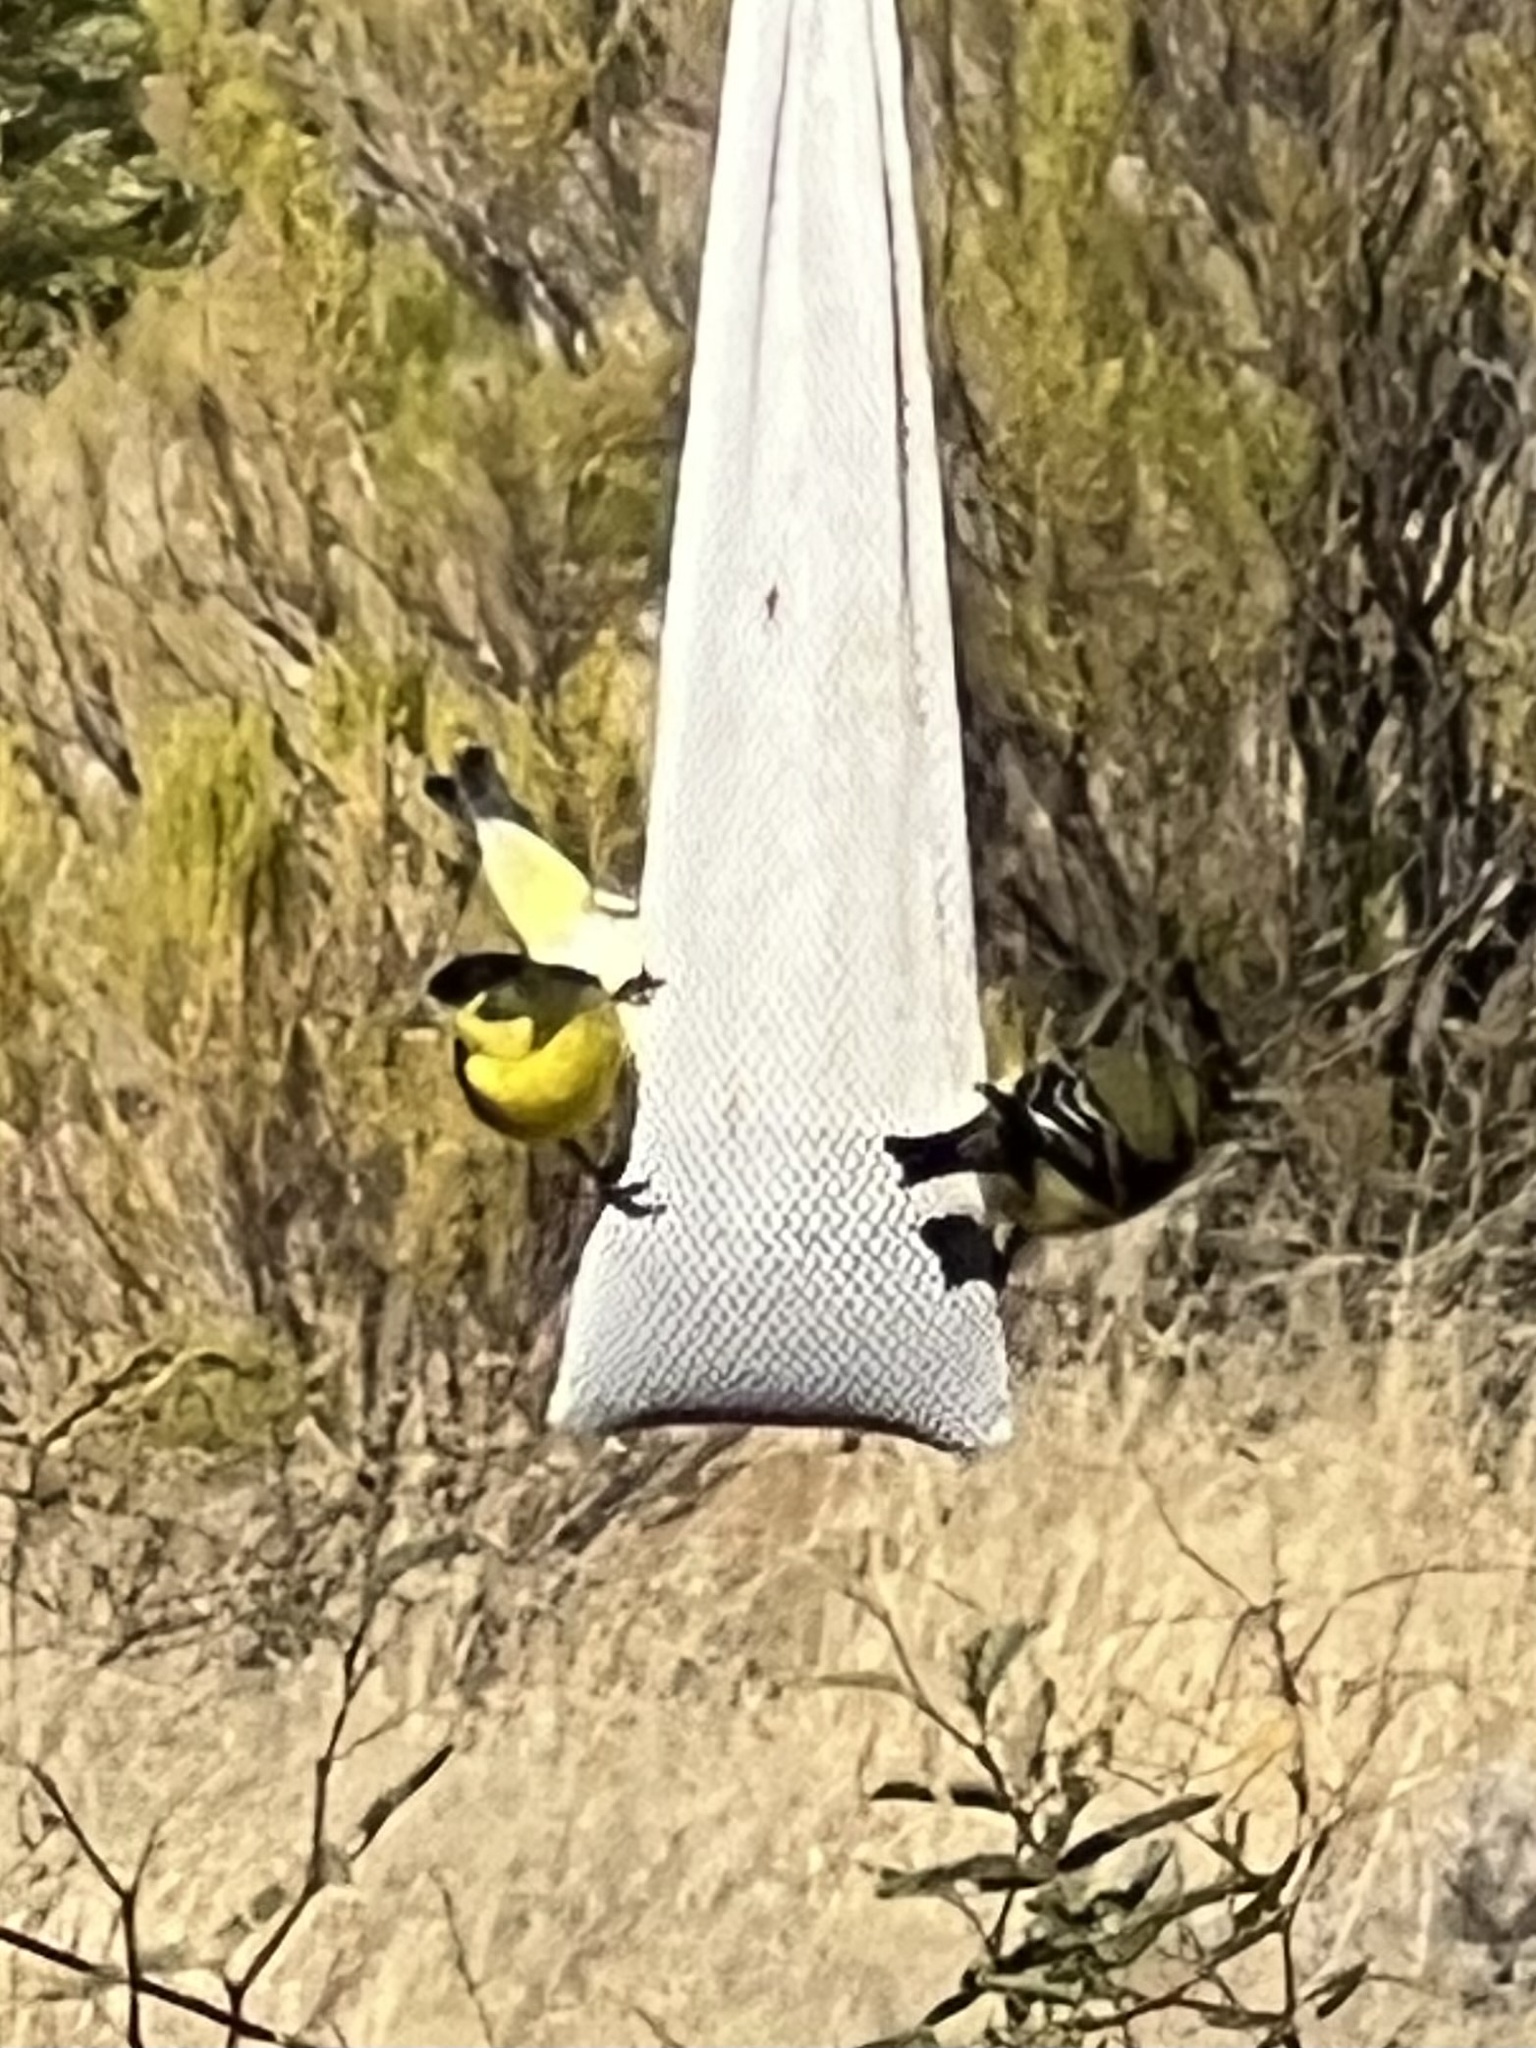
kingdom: Animalia
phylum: Chordata
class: Aves
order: Passeriformes
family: Fringillidae
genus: Spinus
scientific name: Spinus psaltria
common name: Lesser goldfinch
